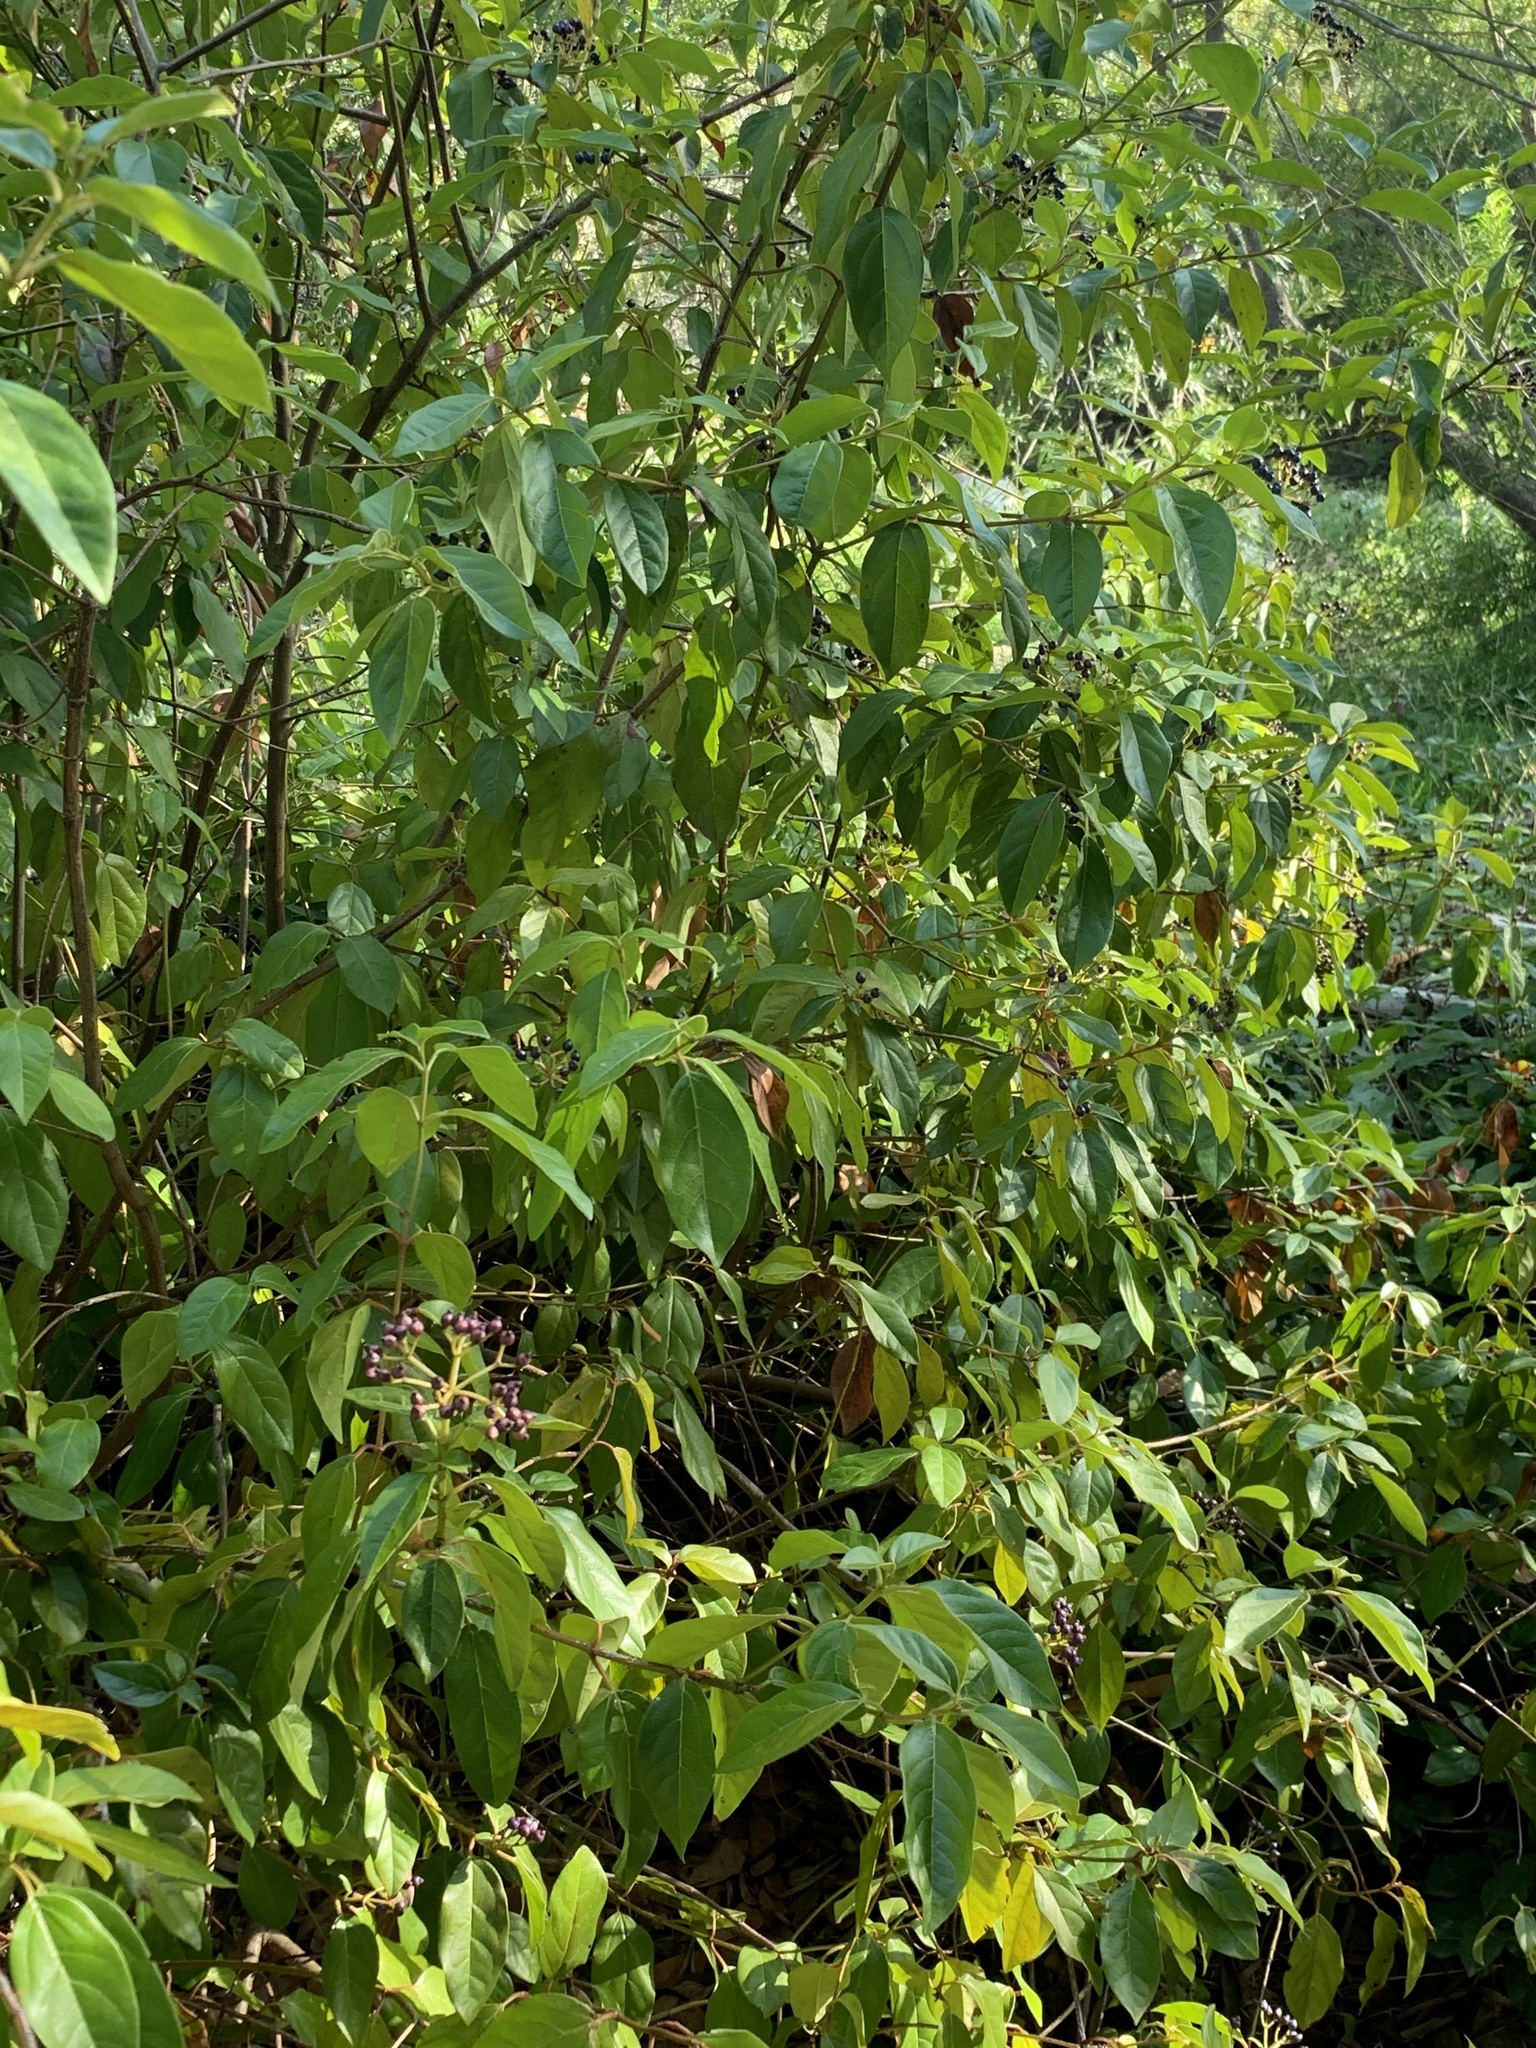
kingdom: Plantae
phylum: Tracheophyta
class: Magnoliopsida
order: Dipsacales
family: Viburnaceae
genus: Viburnum
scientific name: Viburnum tinus
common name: Laurustinus
